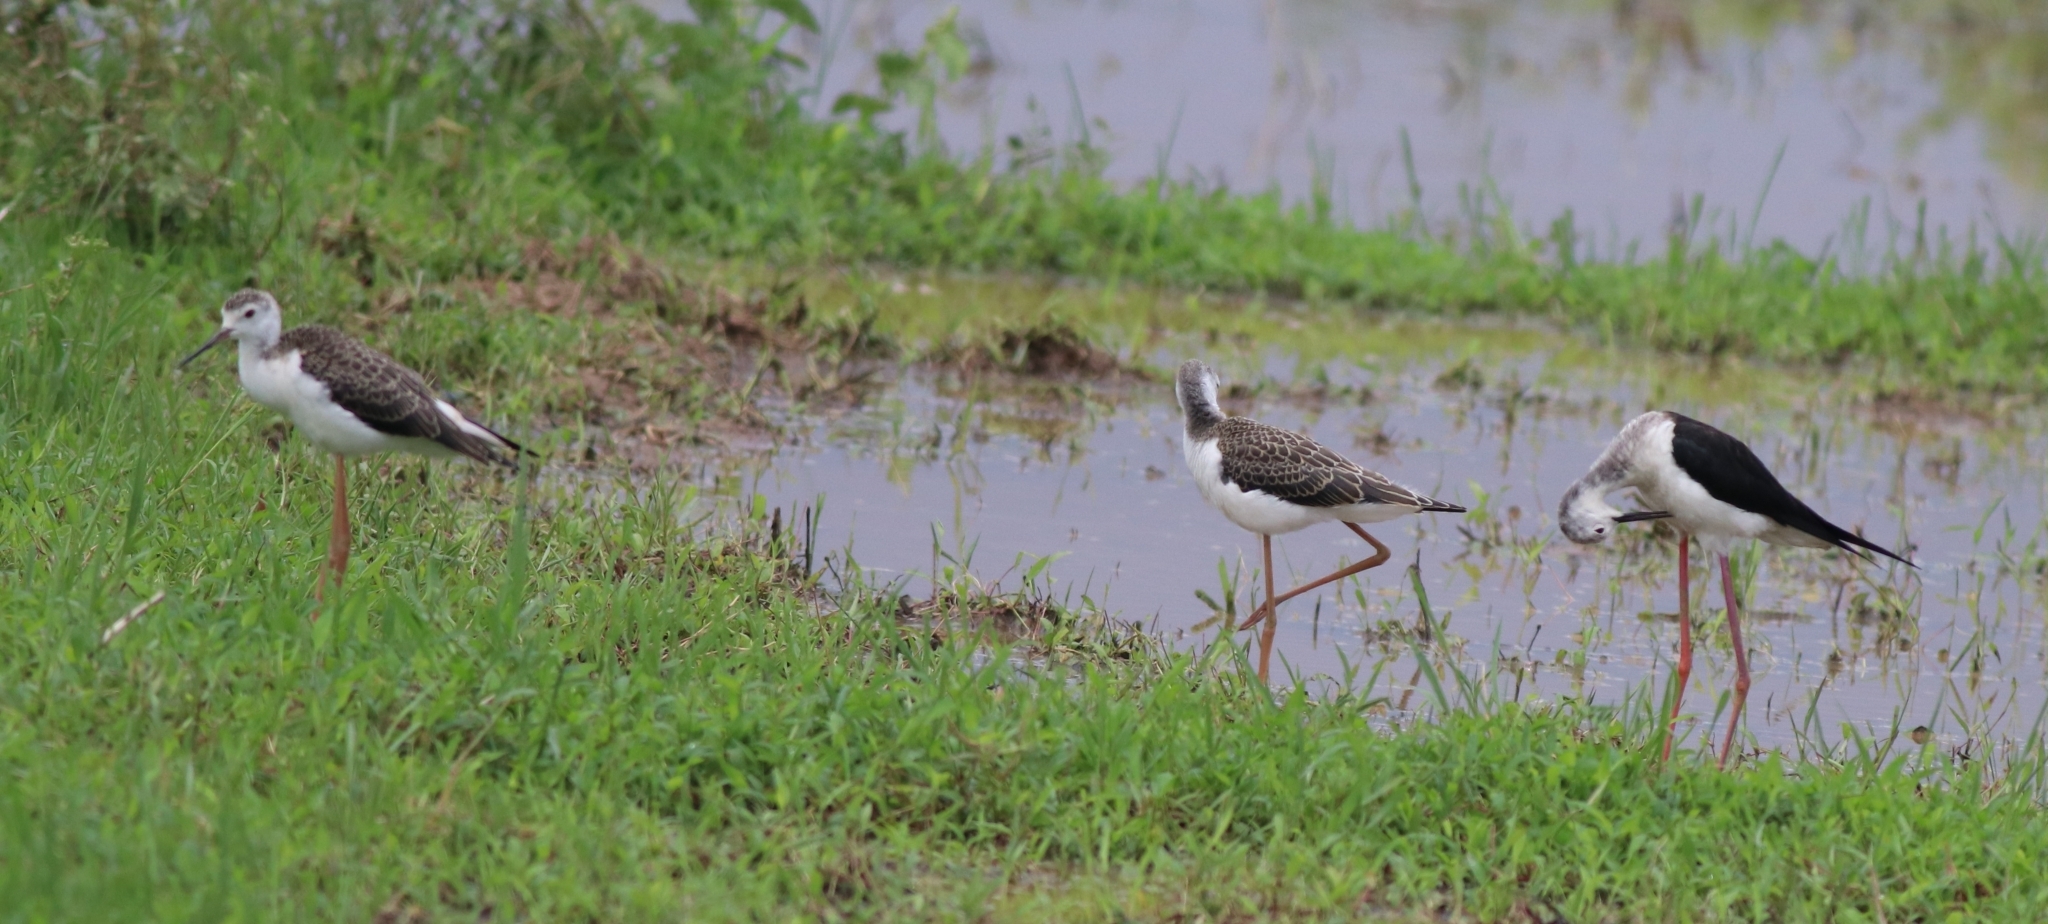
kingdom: Animalia
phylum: Chordata
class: Aves
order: Charadriiformes
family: Recurvirostridae
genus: Himantopus
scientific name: Himantopus himantopus
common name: Black-winged stilt
